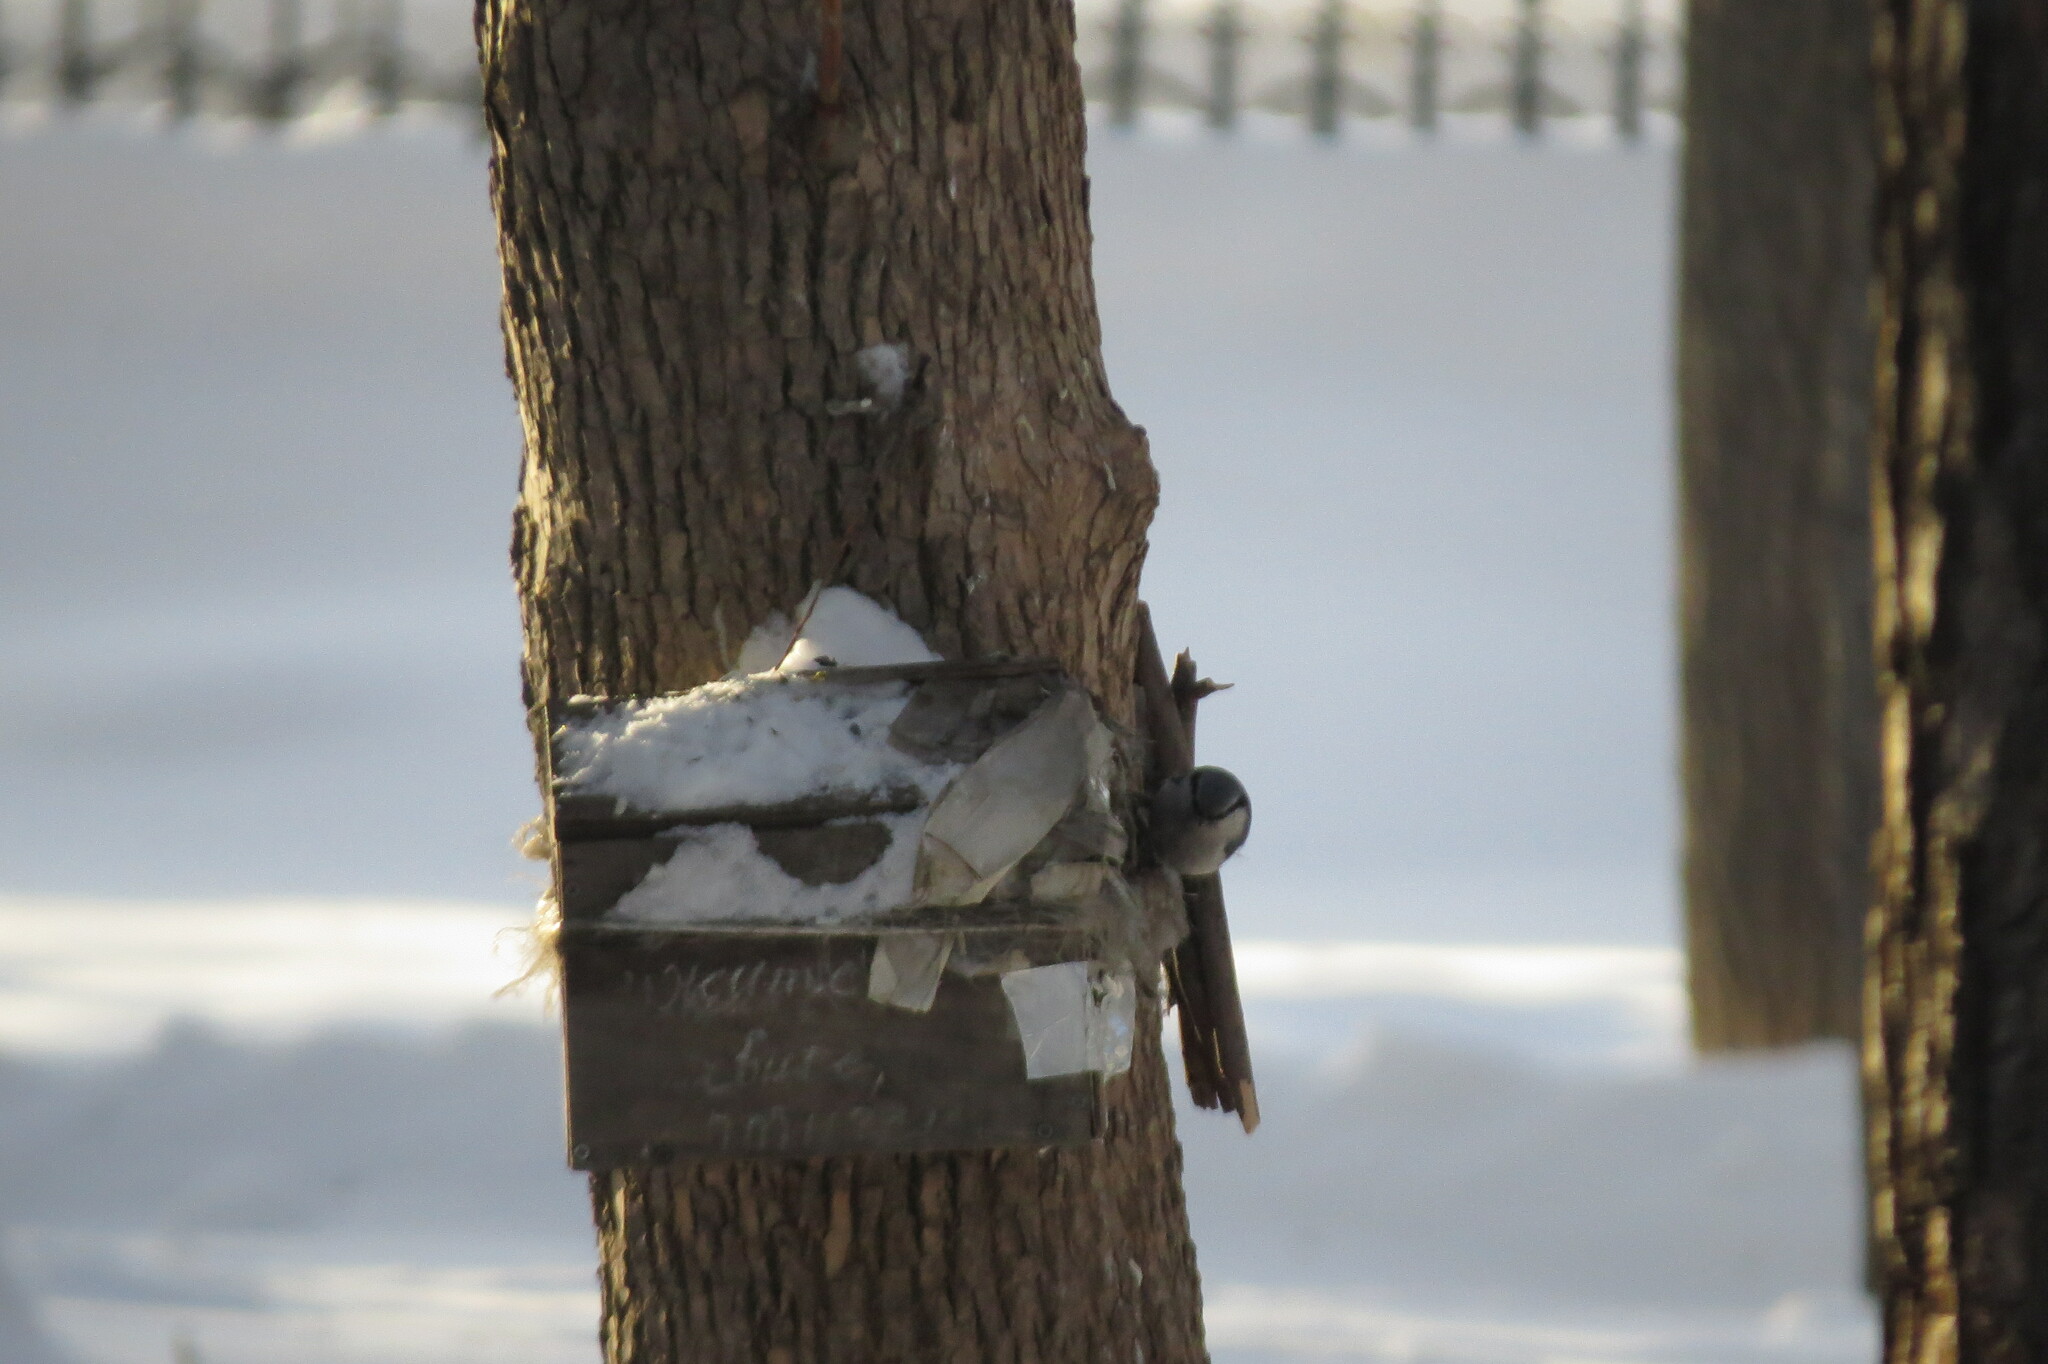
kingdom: Animalia
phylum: Chordata
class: Aves
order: Passeriformes
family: Sittidae
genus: Sitta
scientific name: Sitta europaea
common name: Eurasian nuthatch
